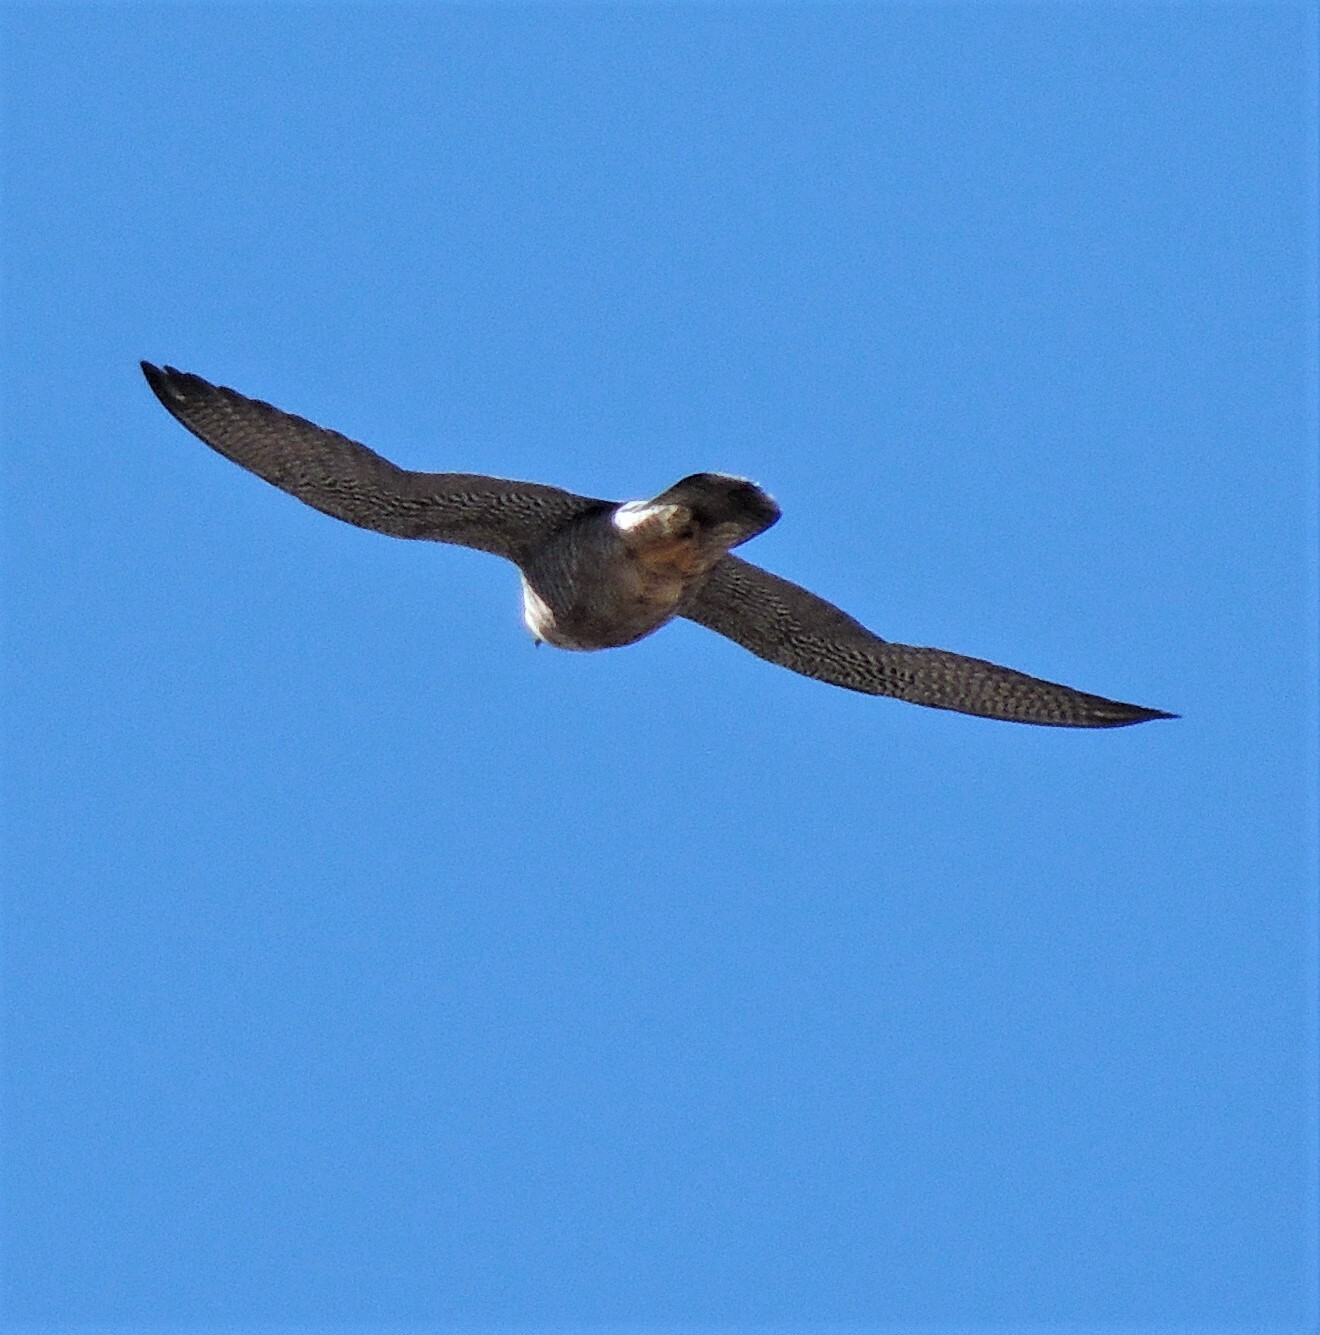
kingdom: Animalia
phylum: Chordata
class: Aves
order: Falconiformes
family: Falconidae
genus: Falco
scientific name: Falco peregrinus
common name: Peregrine falcon
